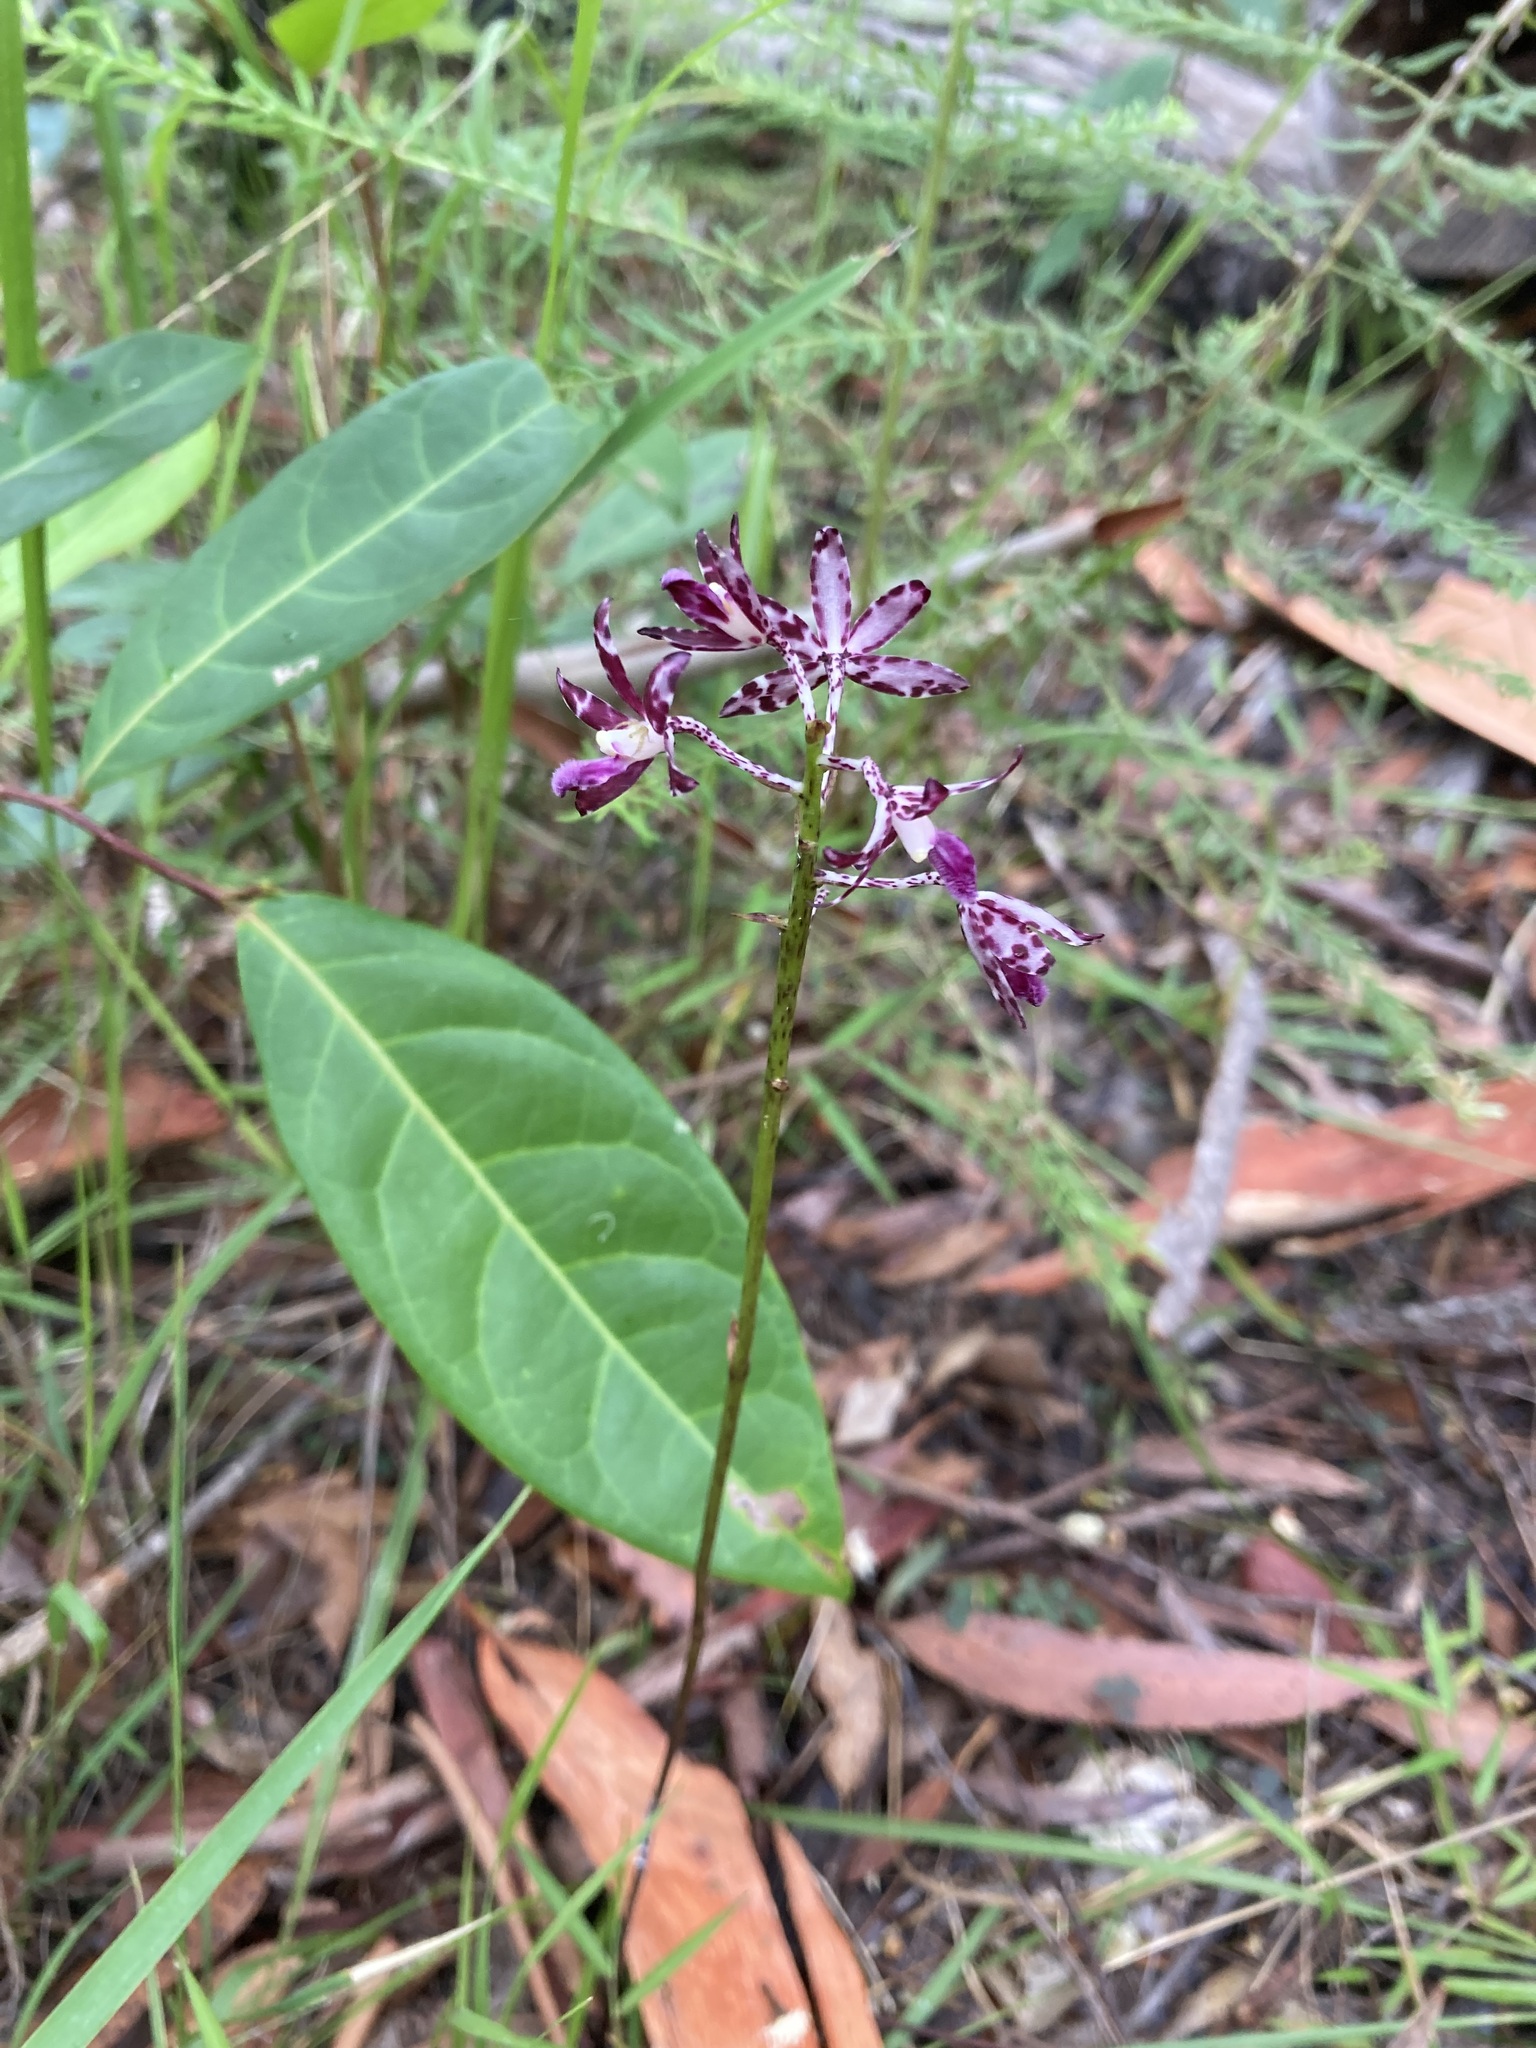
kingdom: Plantae
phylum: Tracheophyta
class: Liliopsida
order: Asparagales
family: Orchidaceae
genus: Dipodium
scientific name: Dipodium variegatum
